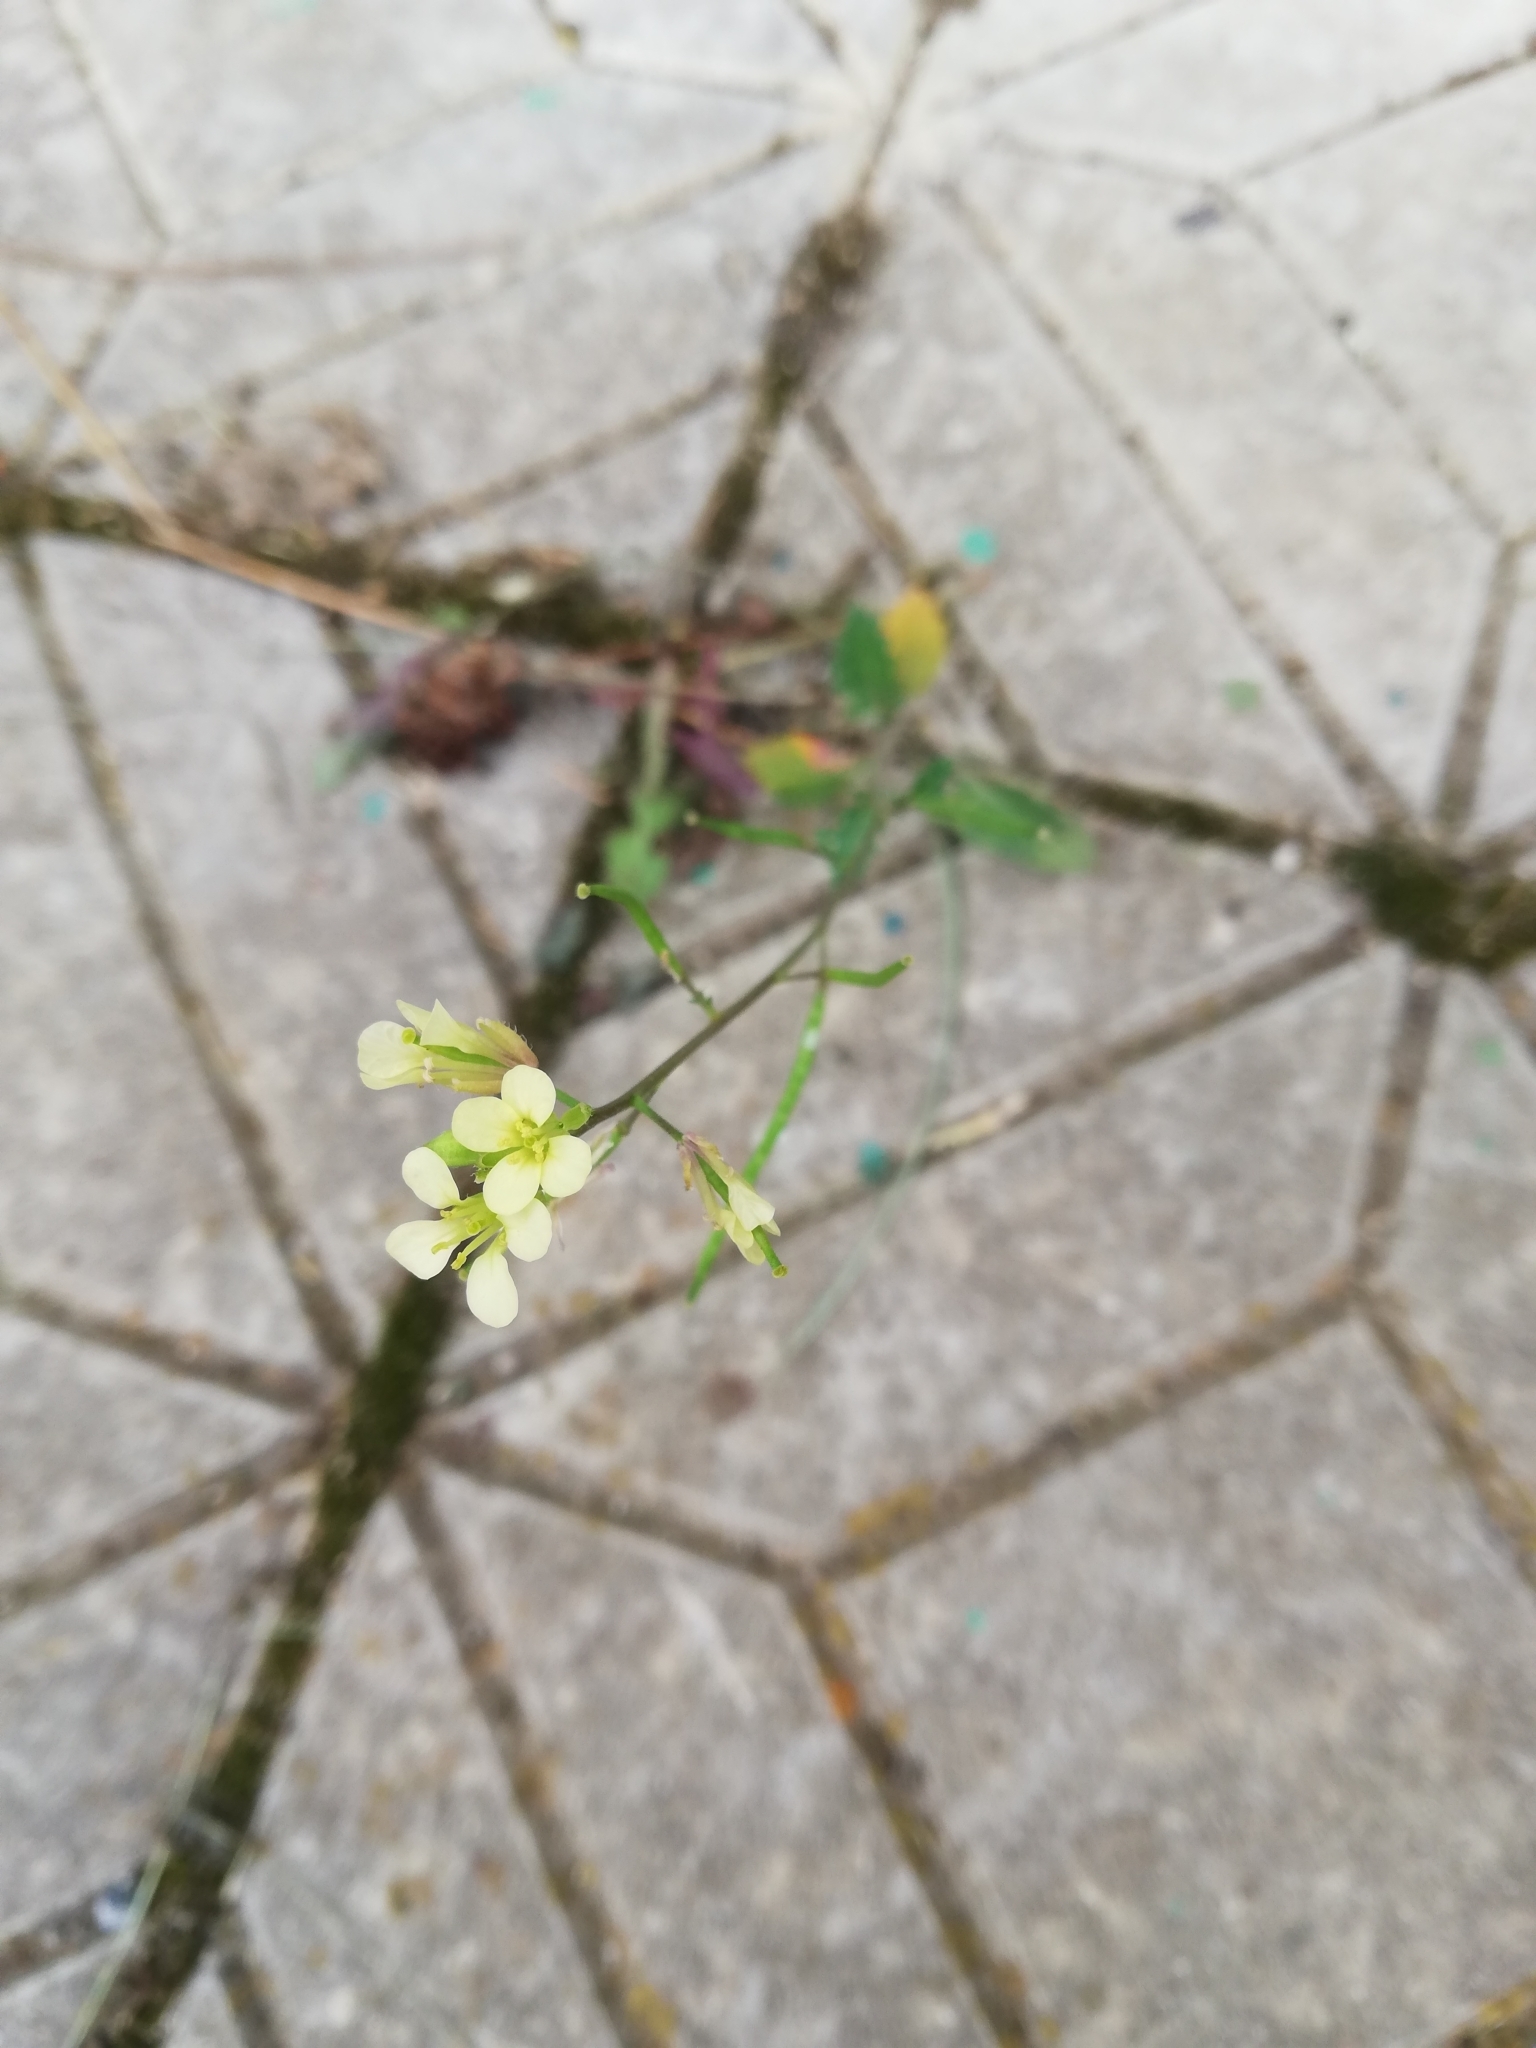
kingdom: Plantae
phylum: Tracheophyta
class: Magnoliopsida
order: Brassicales
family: Brassicaceae
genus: Erucastrum
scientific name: Erucastrum gallicum
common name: Hairy rocket
